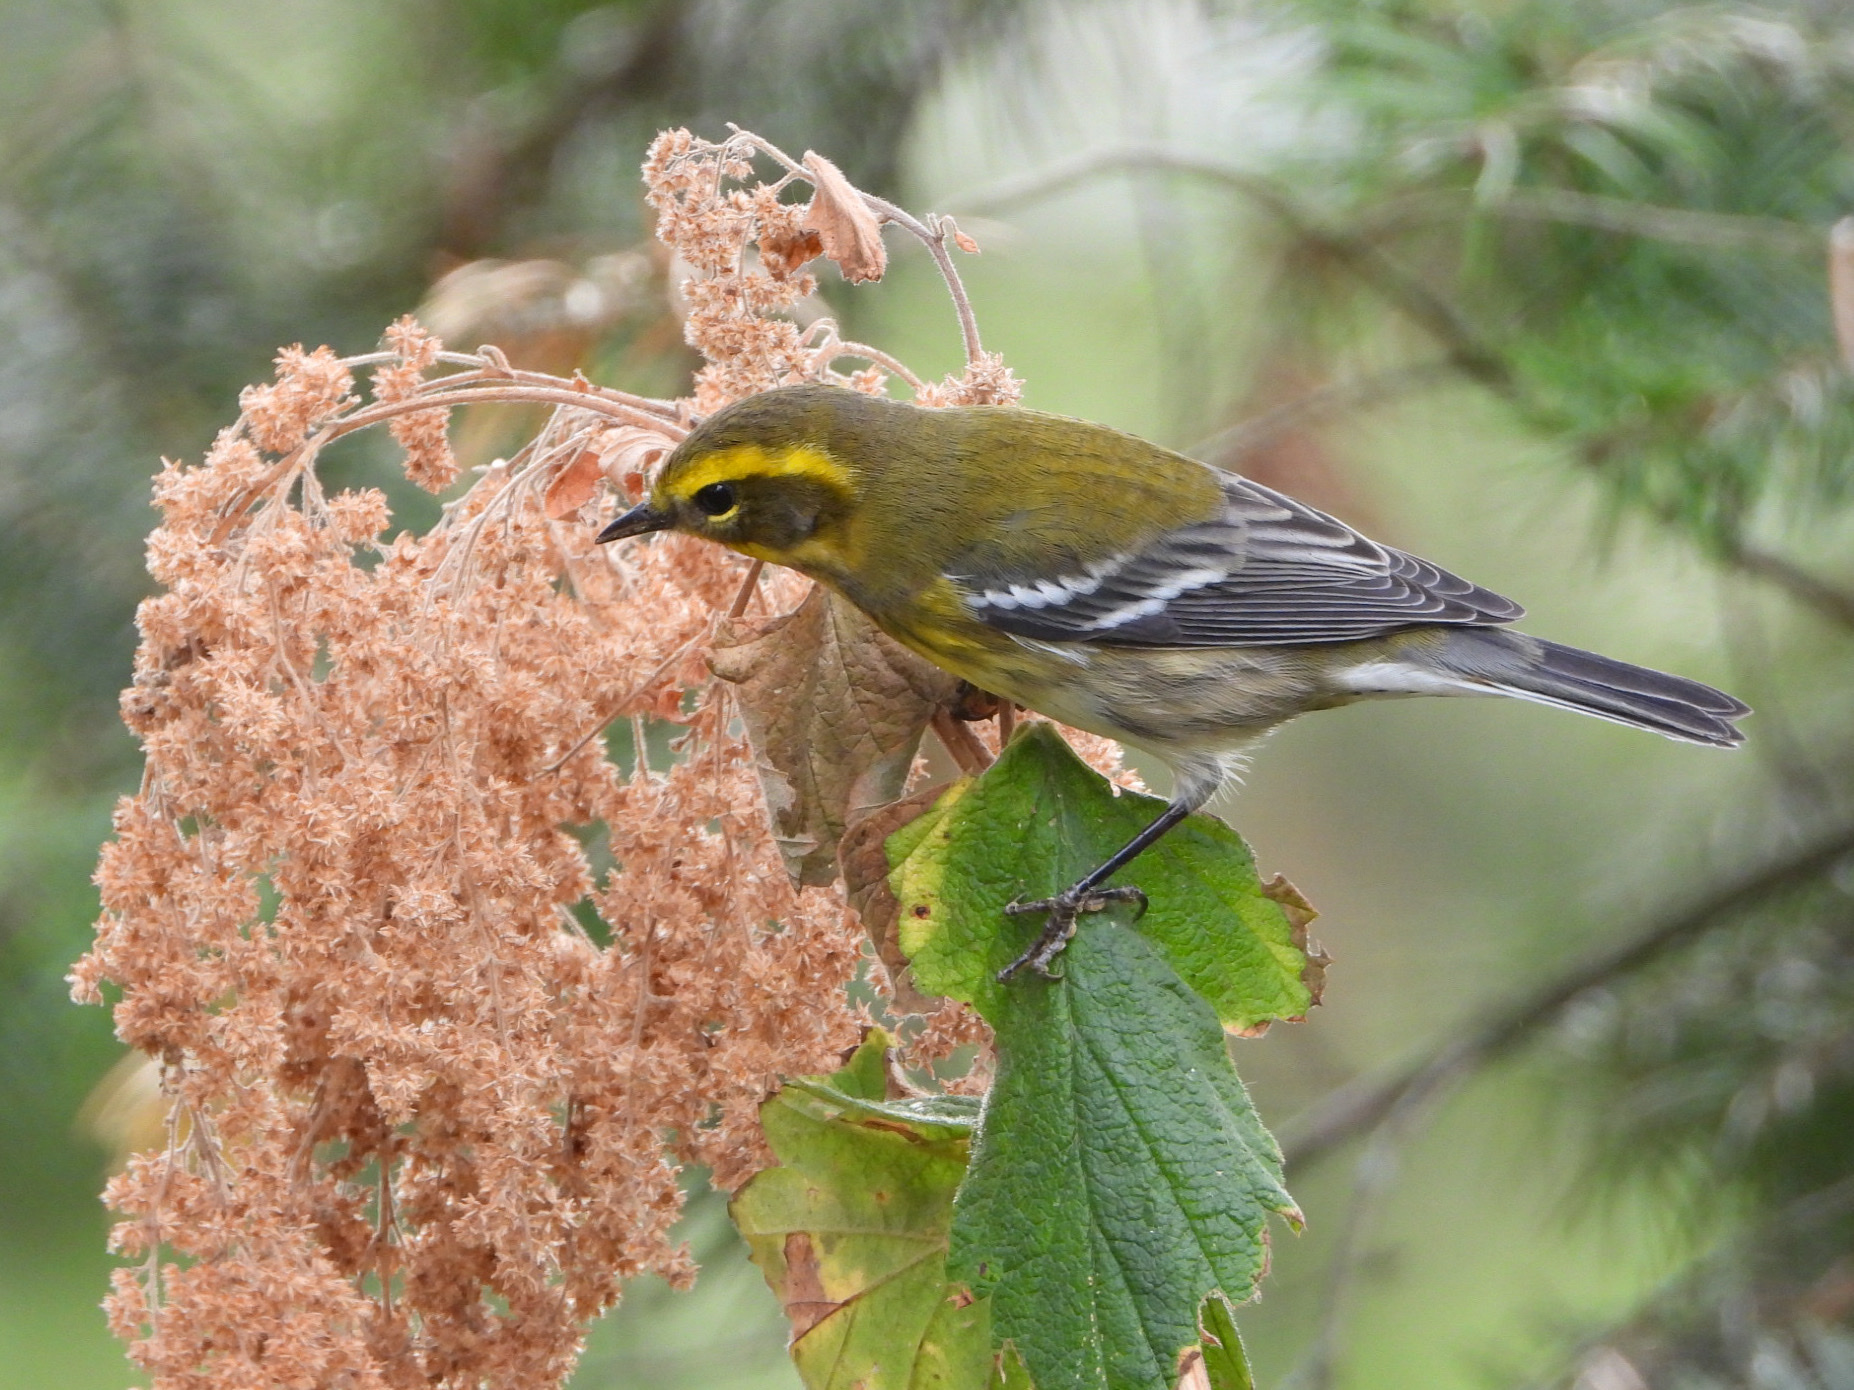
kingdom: Animalia
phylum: Chordata
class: Aves
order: Passeriformes
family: Parulidae
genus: Setophaga
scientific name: Setophaga townsendi
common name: Townsend's warbler
